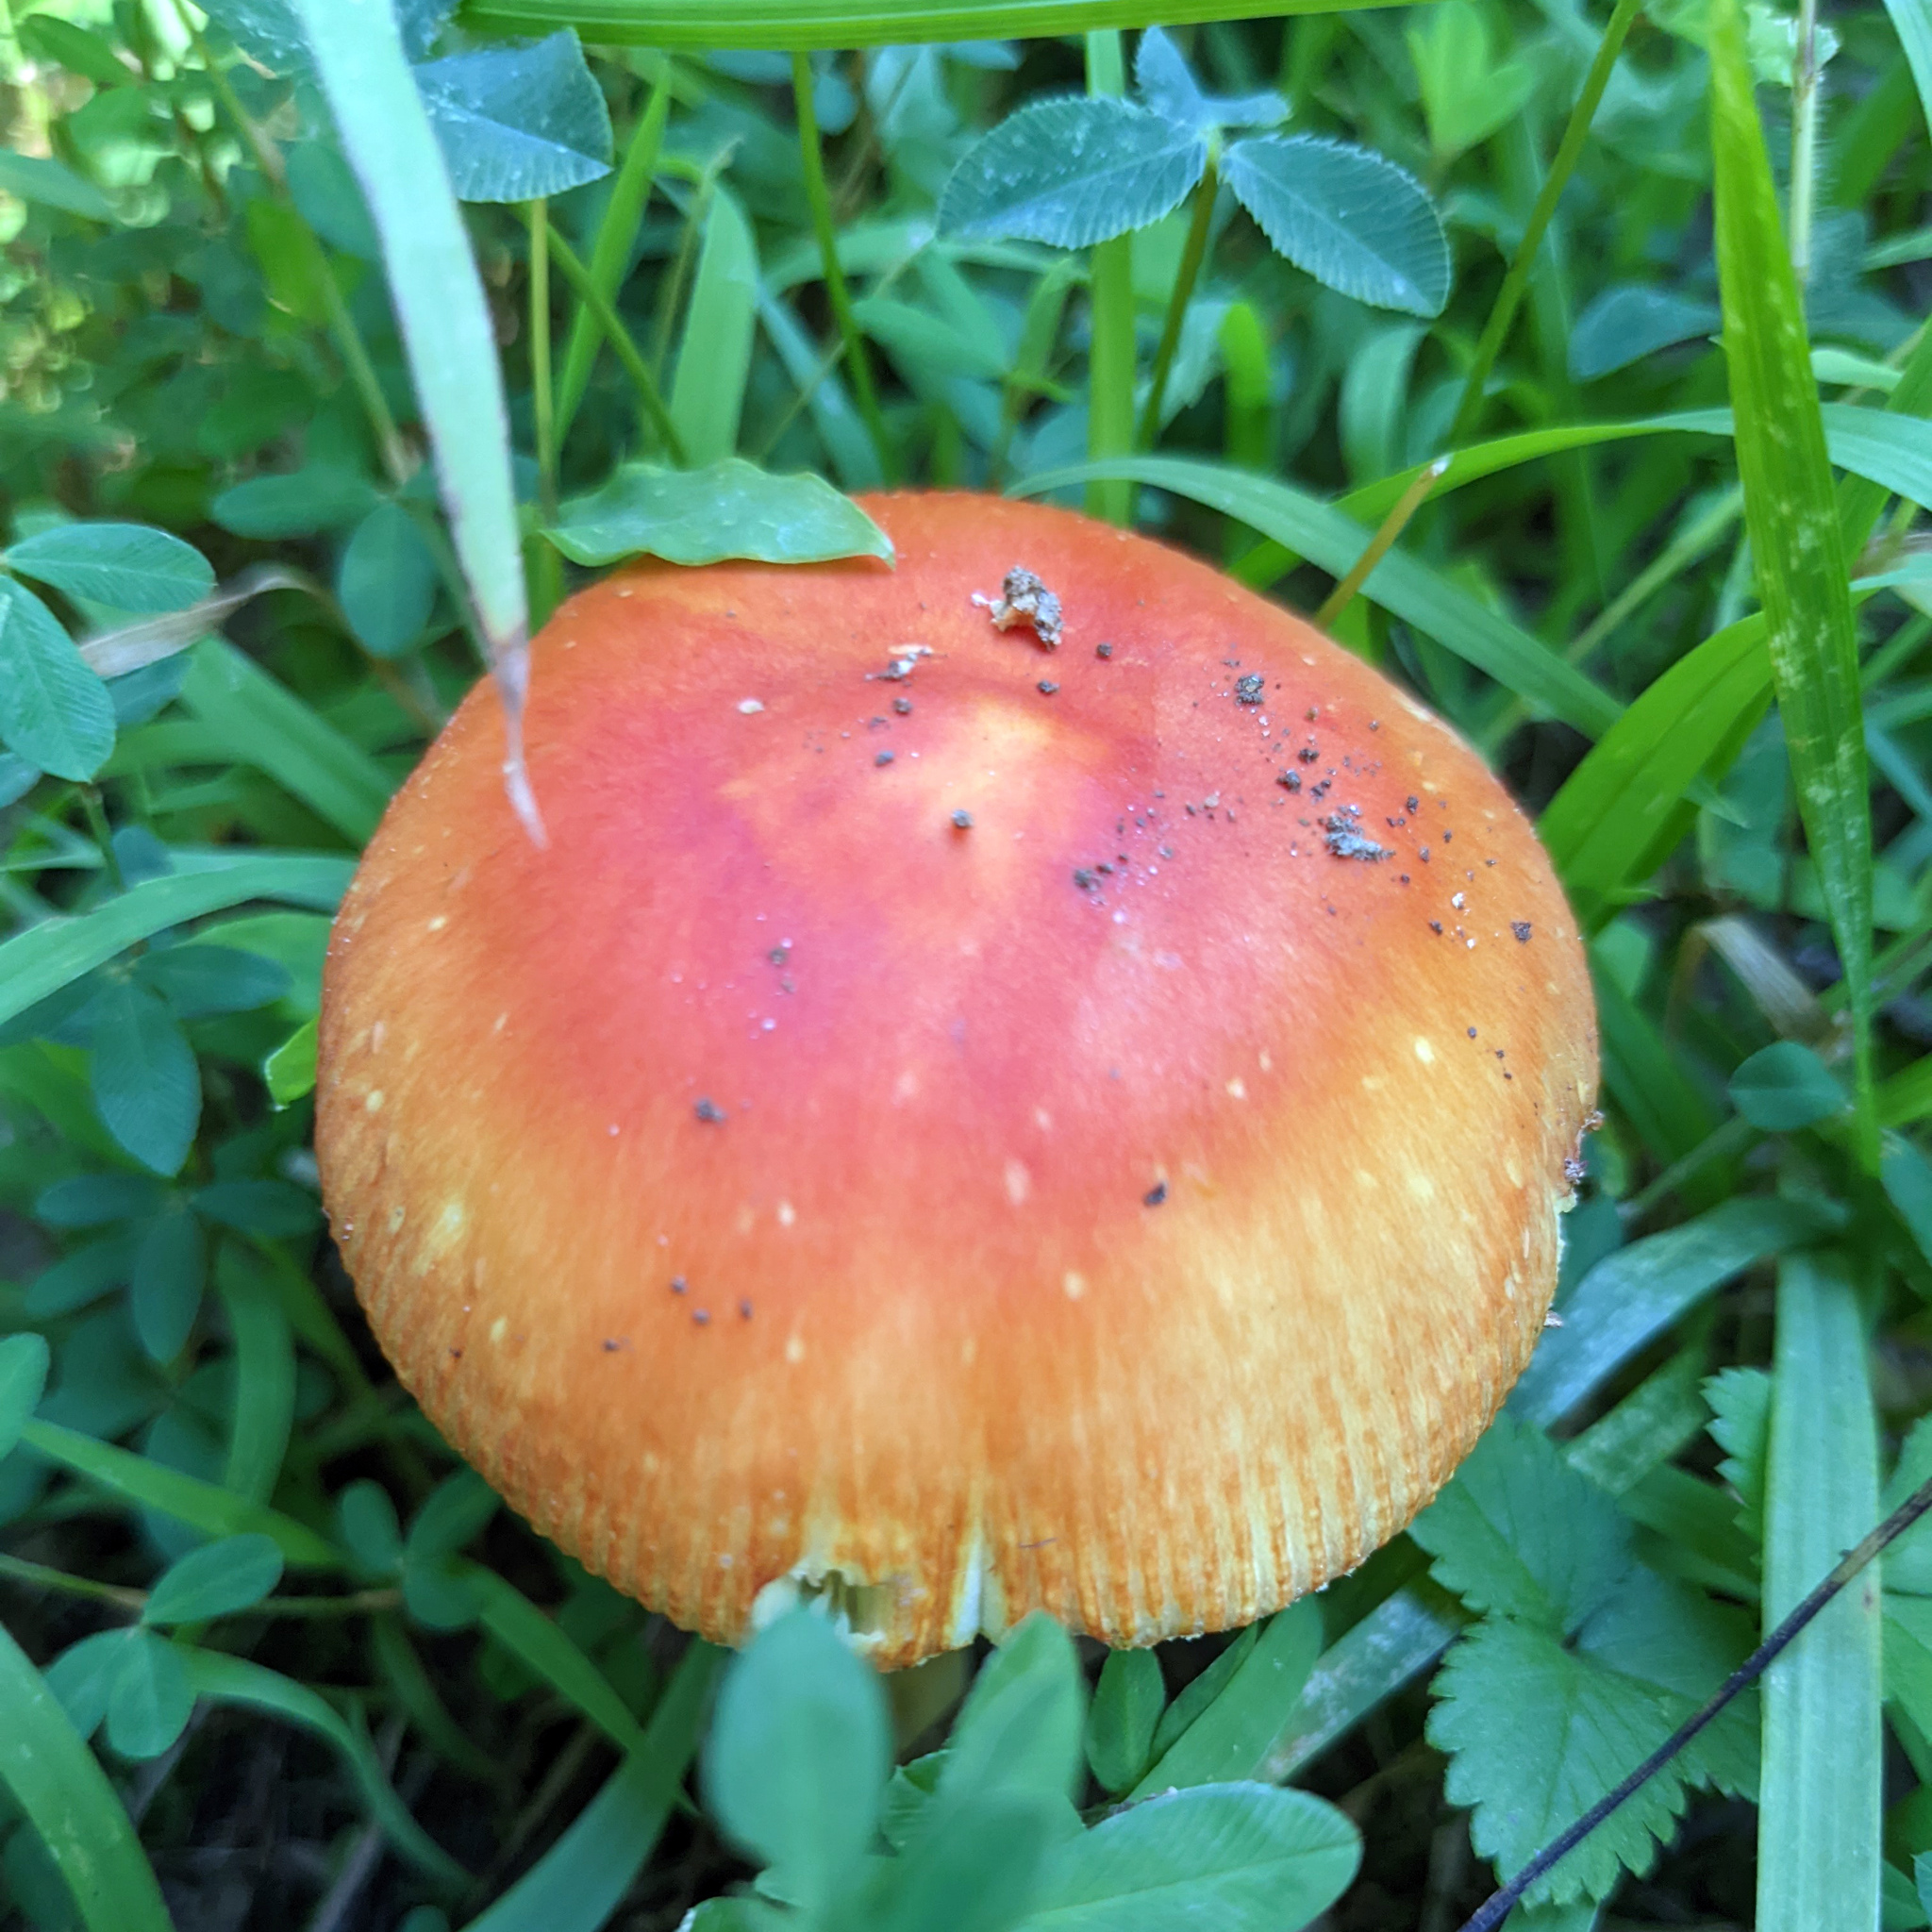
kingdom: Fungi
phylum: Basidiomycota
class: Agaricomycetes
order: Agaricales
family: Amanitaceae
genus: Amanita
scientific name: Amanita parcivolvata
